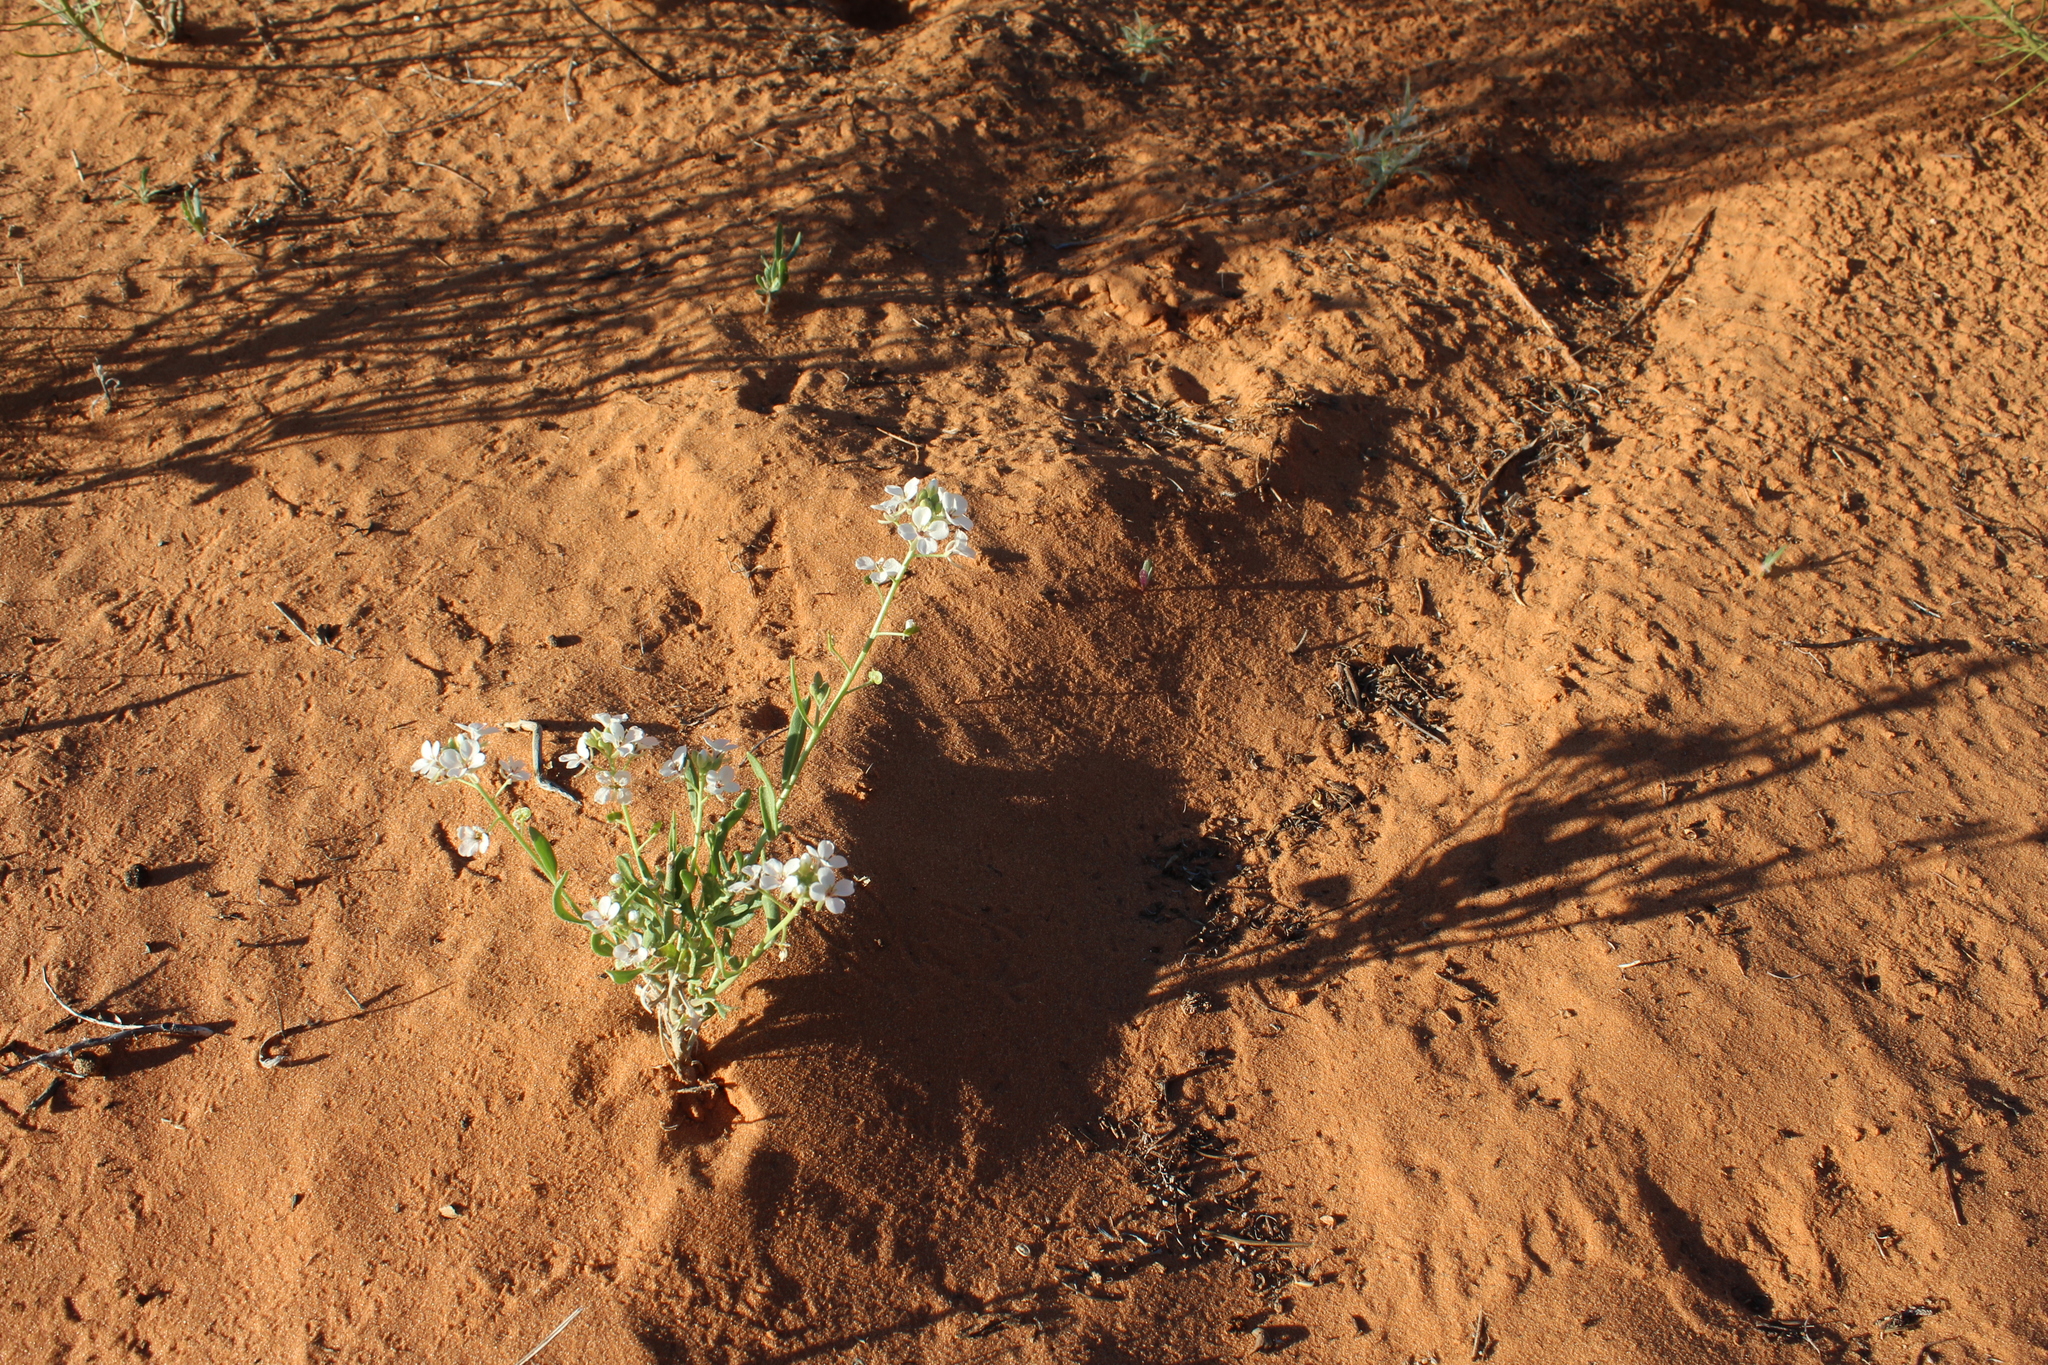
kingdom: Plantae
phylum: Tracheophyta
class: Magnoliopsida
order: Brassicales
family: Brassicaceae
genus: Dimorphocarpa
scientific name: Dimorphocarpa wislizenii
